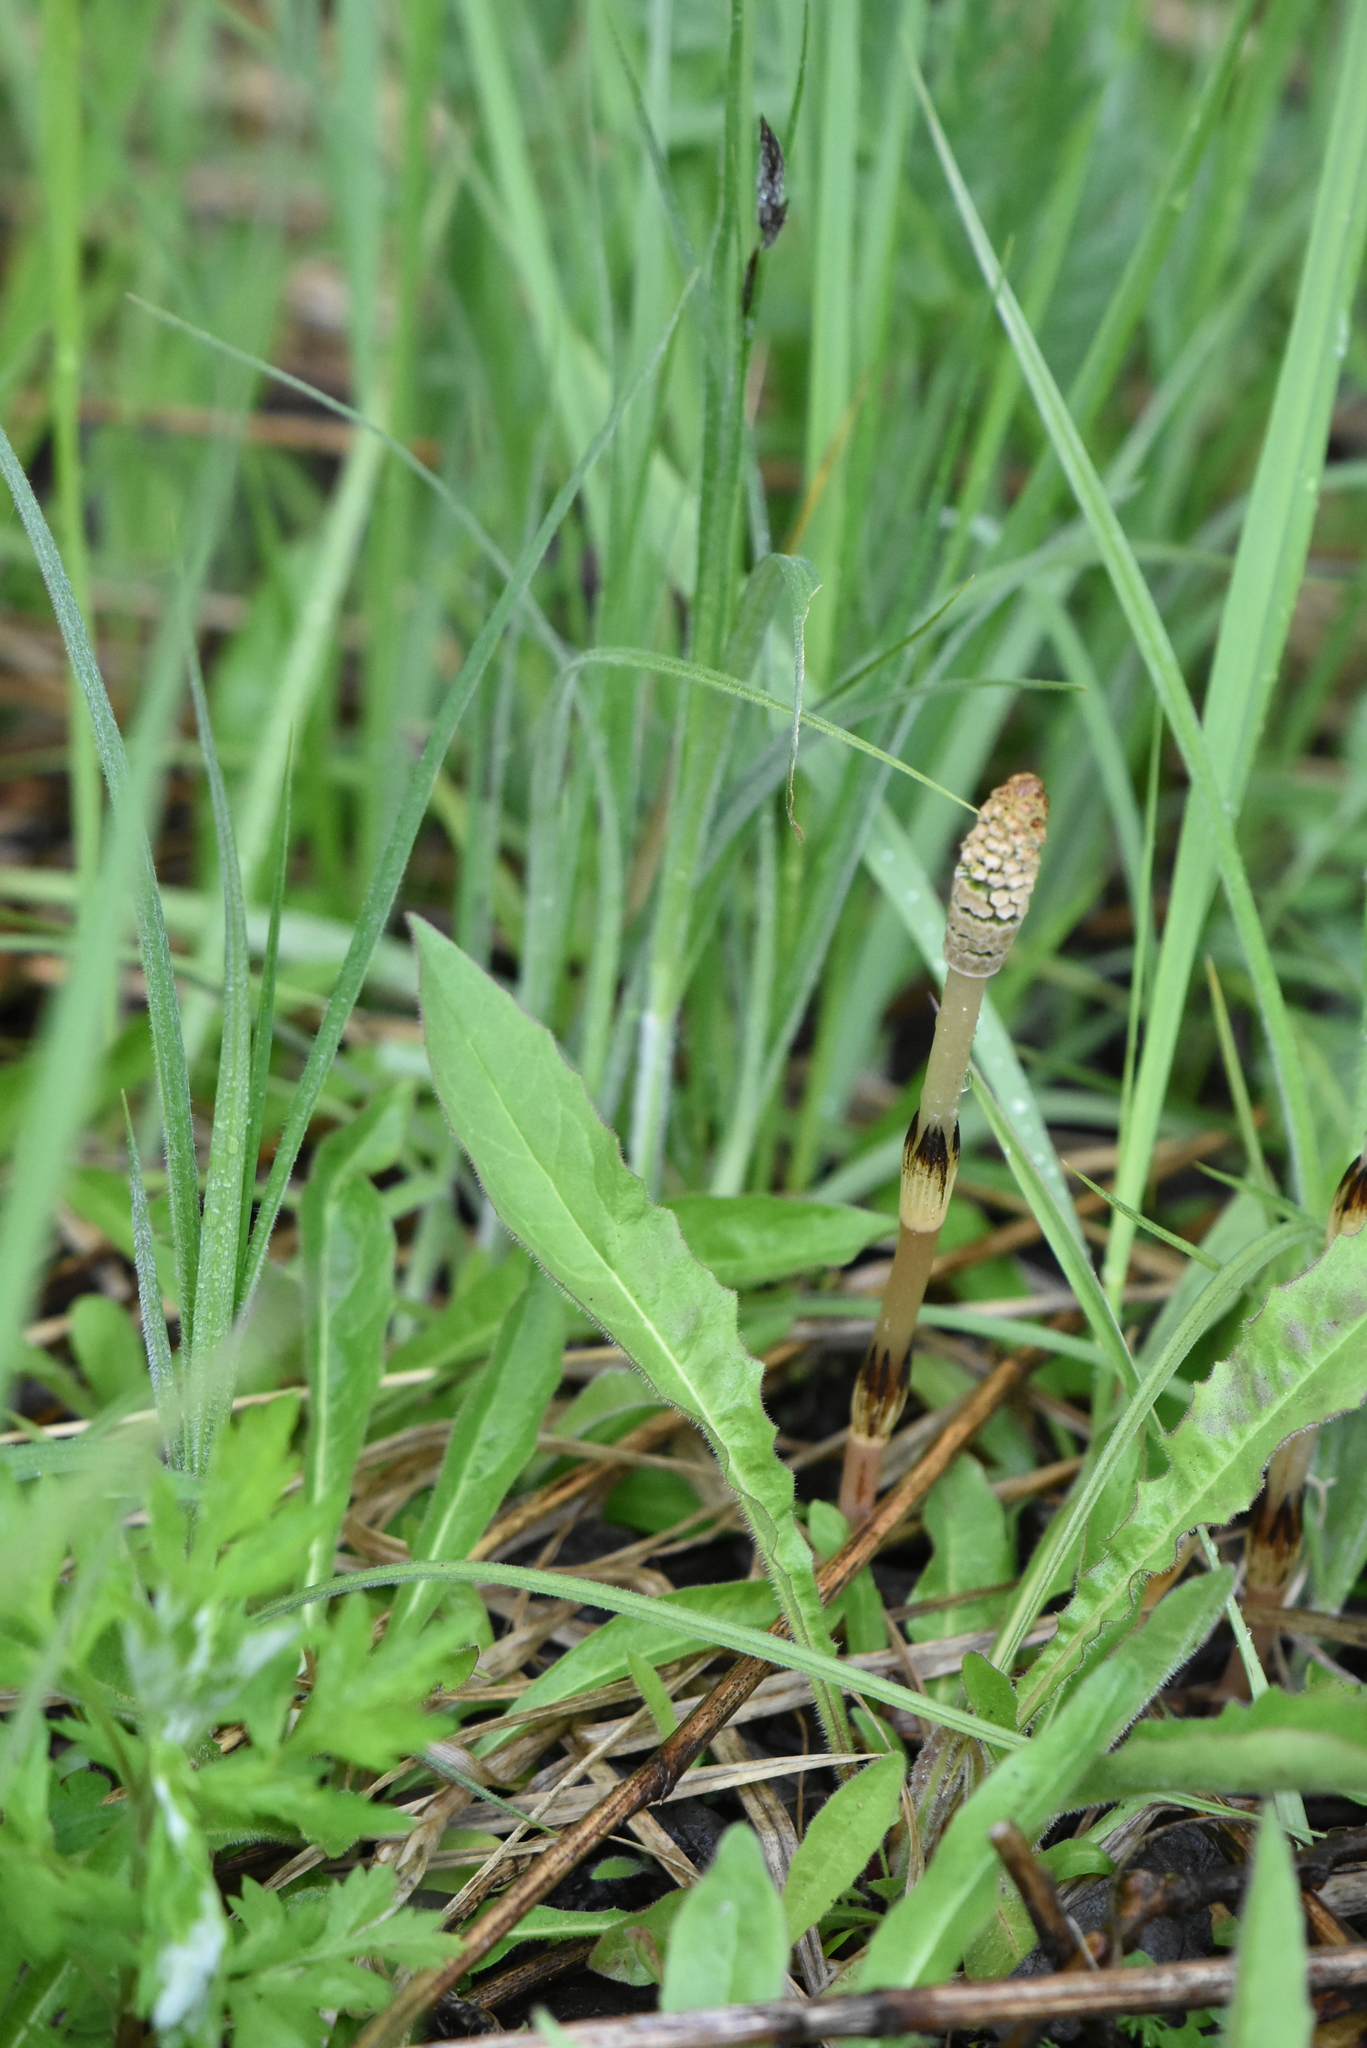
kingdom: Plantae
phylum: Tracheophyta
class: Polypodiopsida
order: Equisetales
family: Equisetaceae
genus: Equisetum
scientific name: Equisetum arvense
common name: Field horsetail
